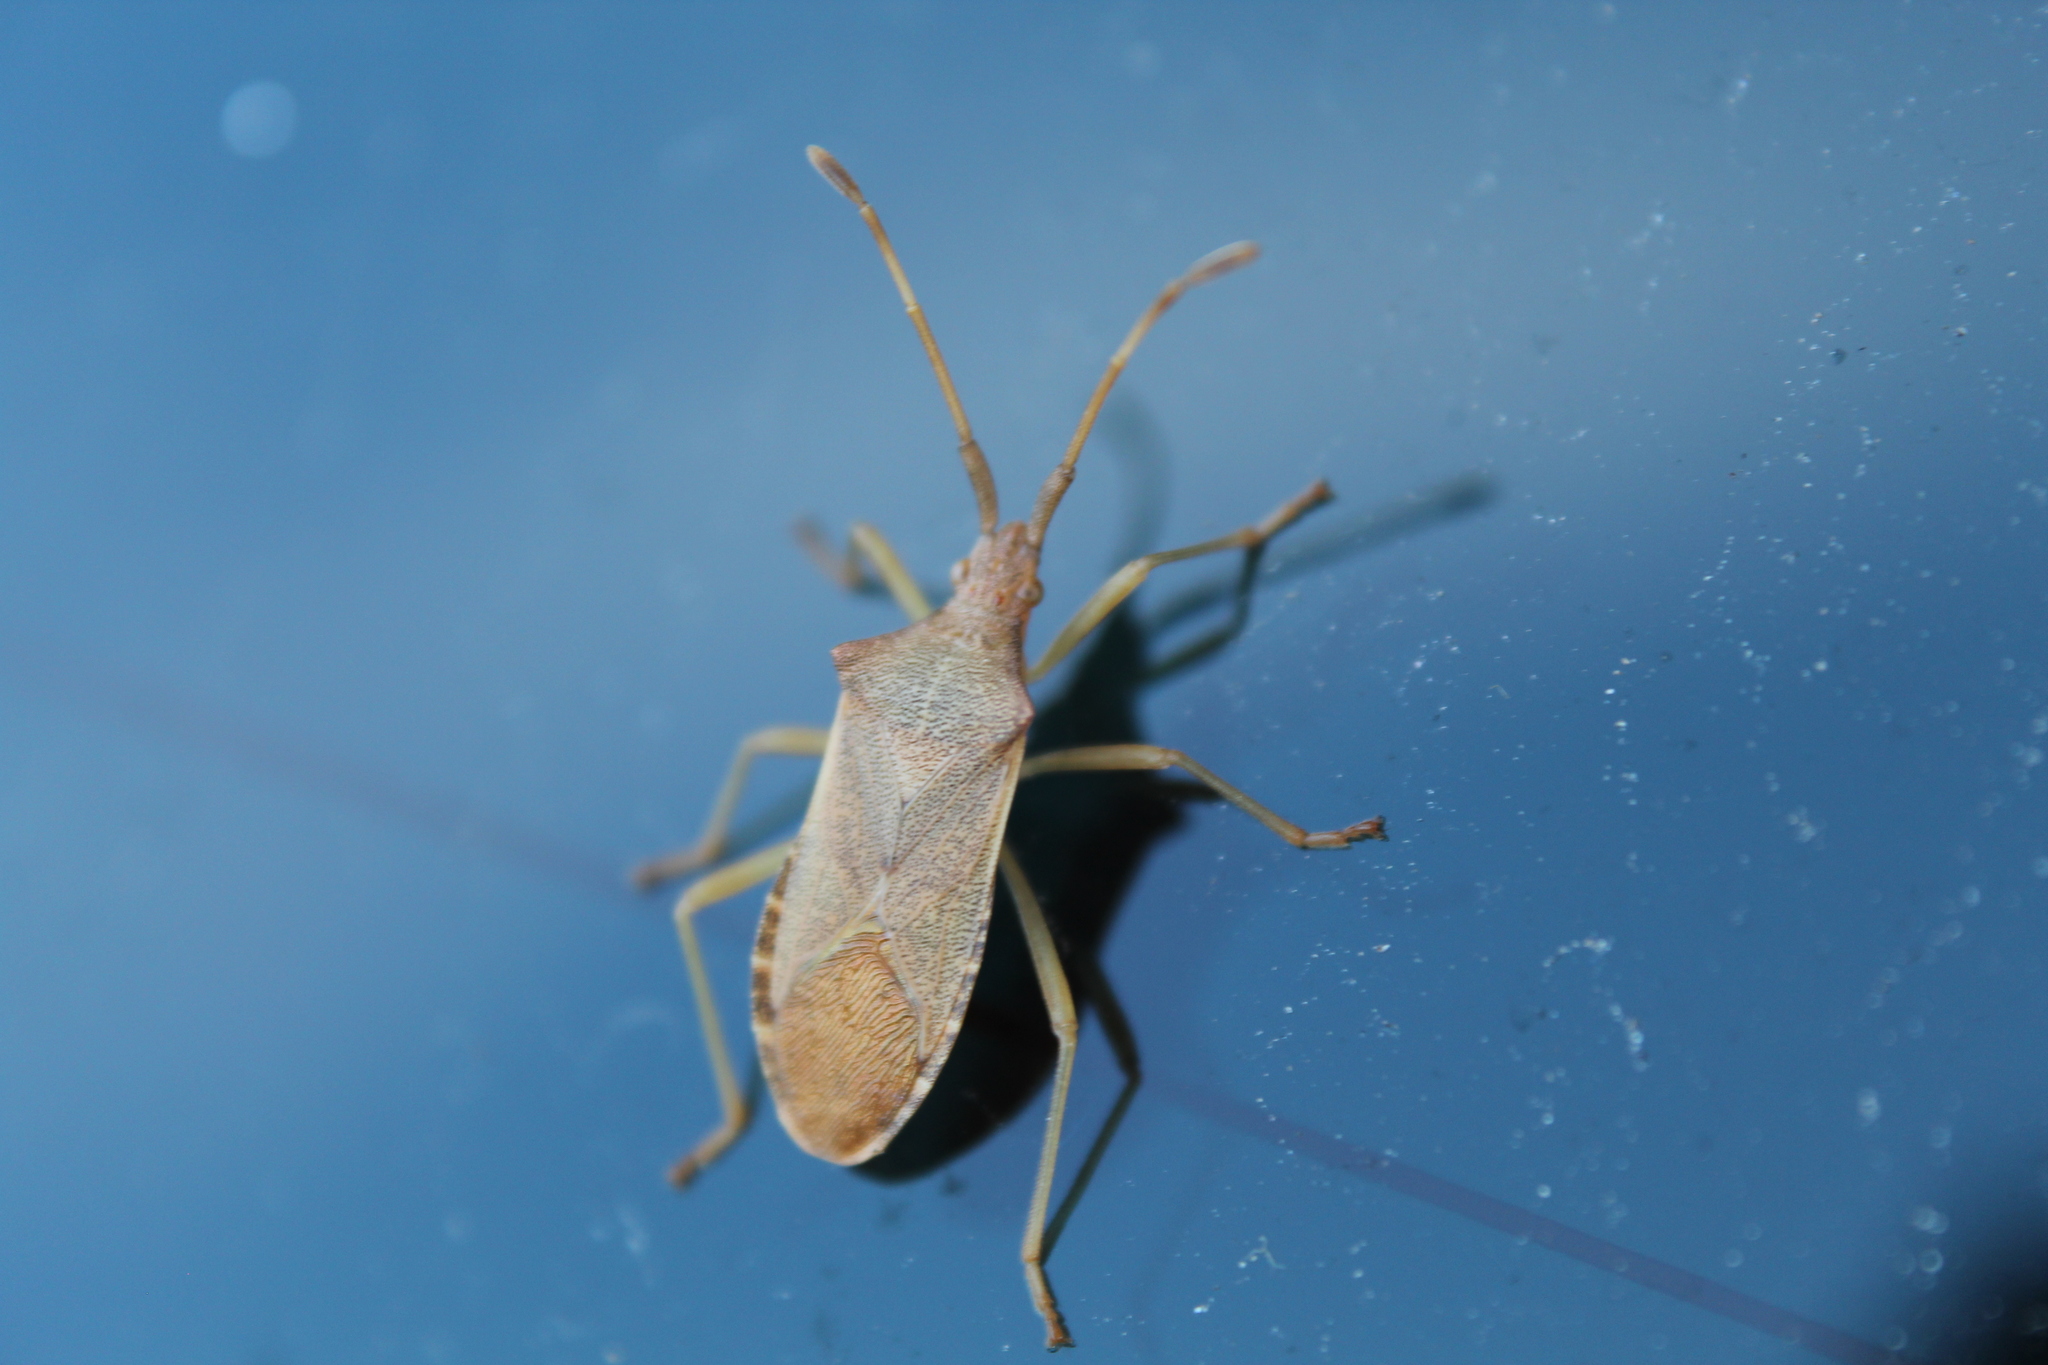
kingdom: Animalia
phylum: Arthropoda
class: Insecta
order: Hemiptera
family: Coreidae
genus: Gonocerus
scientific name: Gonocerus acuteangulatus
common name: Box bug
